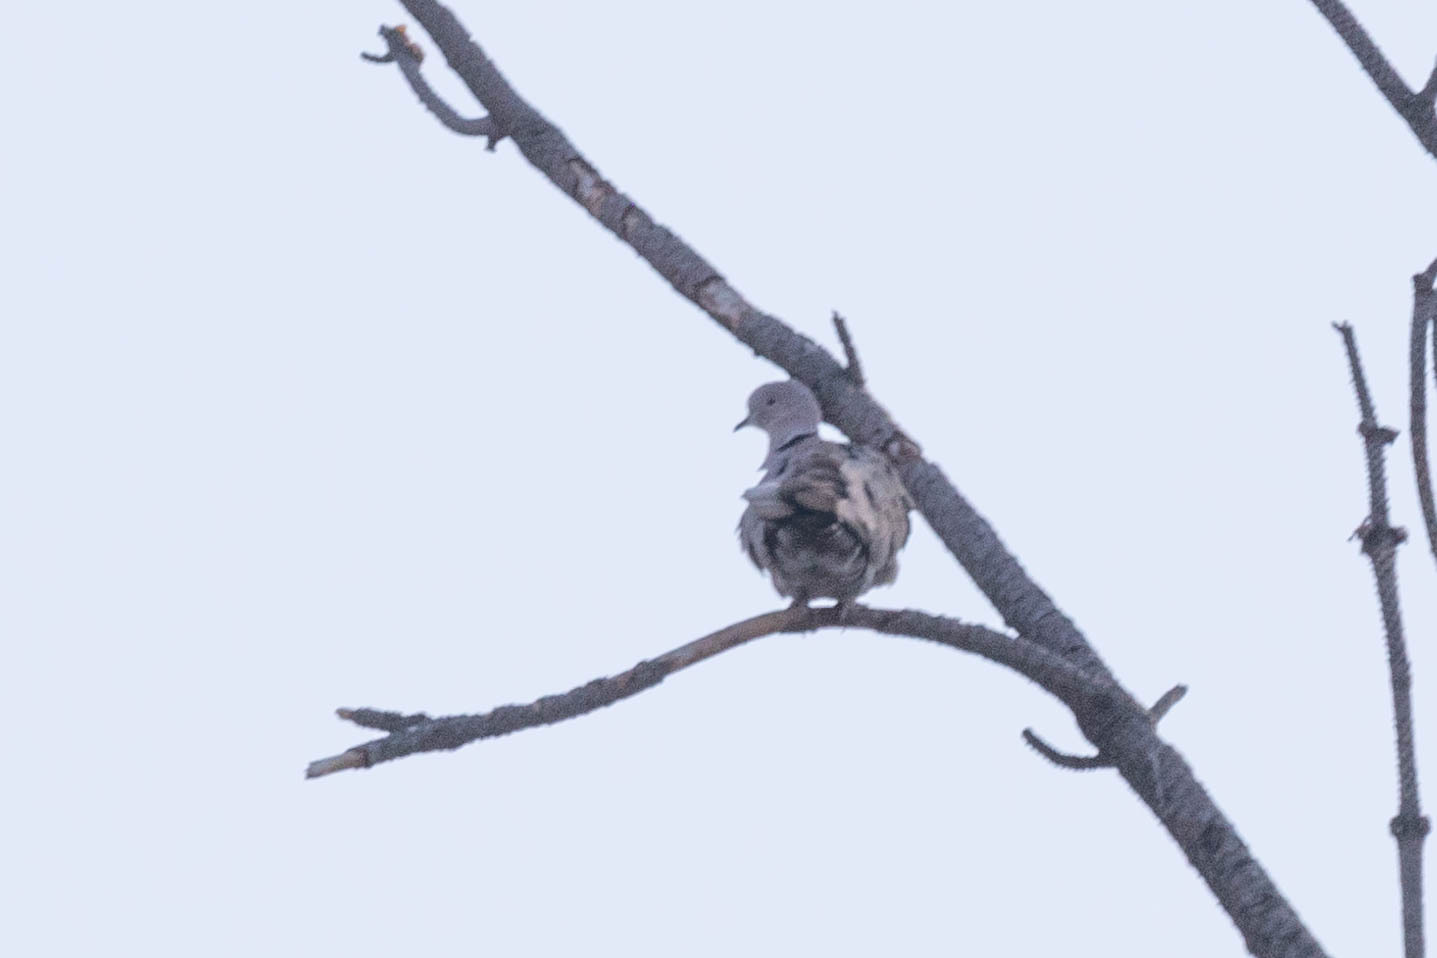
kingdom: Animalia
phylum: Chordata
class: Aves
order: Columbiformes
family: Columbidae
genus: Streptopelia
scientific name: Streptopelia decaocto
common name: Eurasian collared dove
